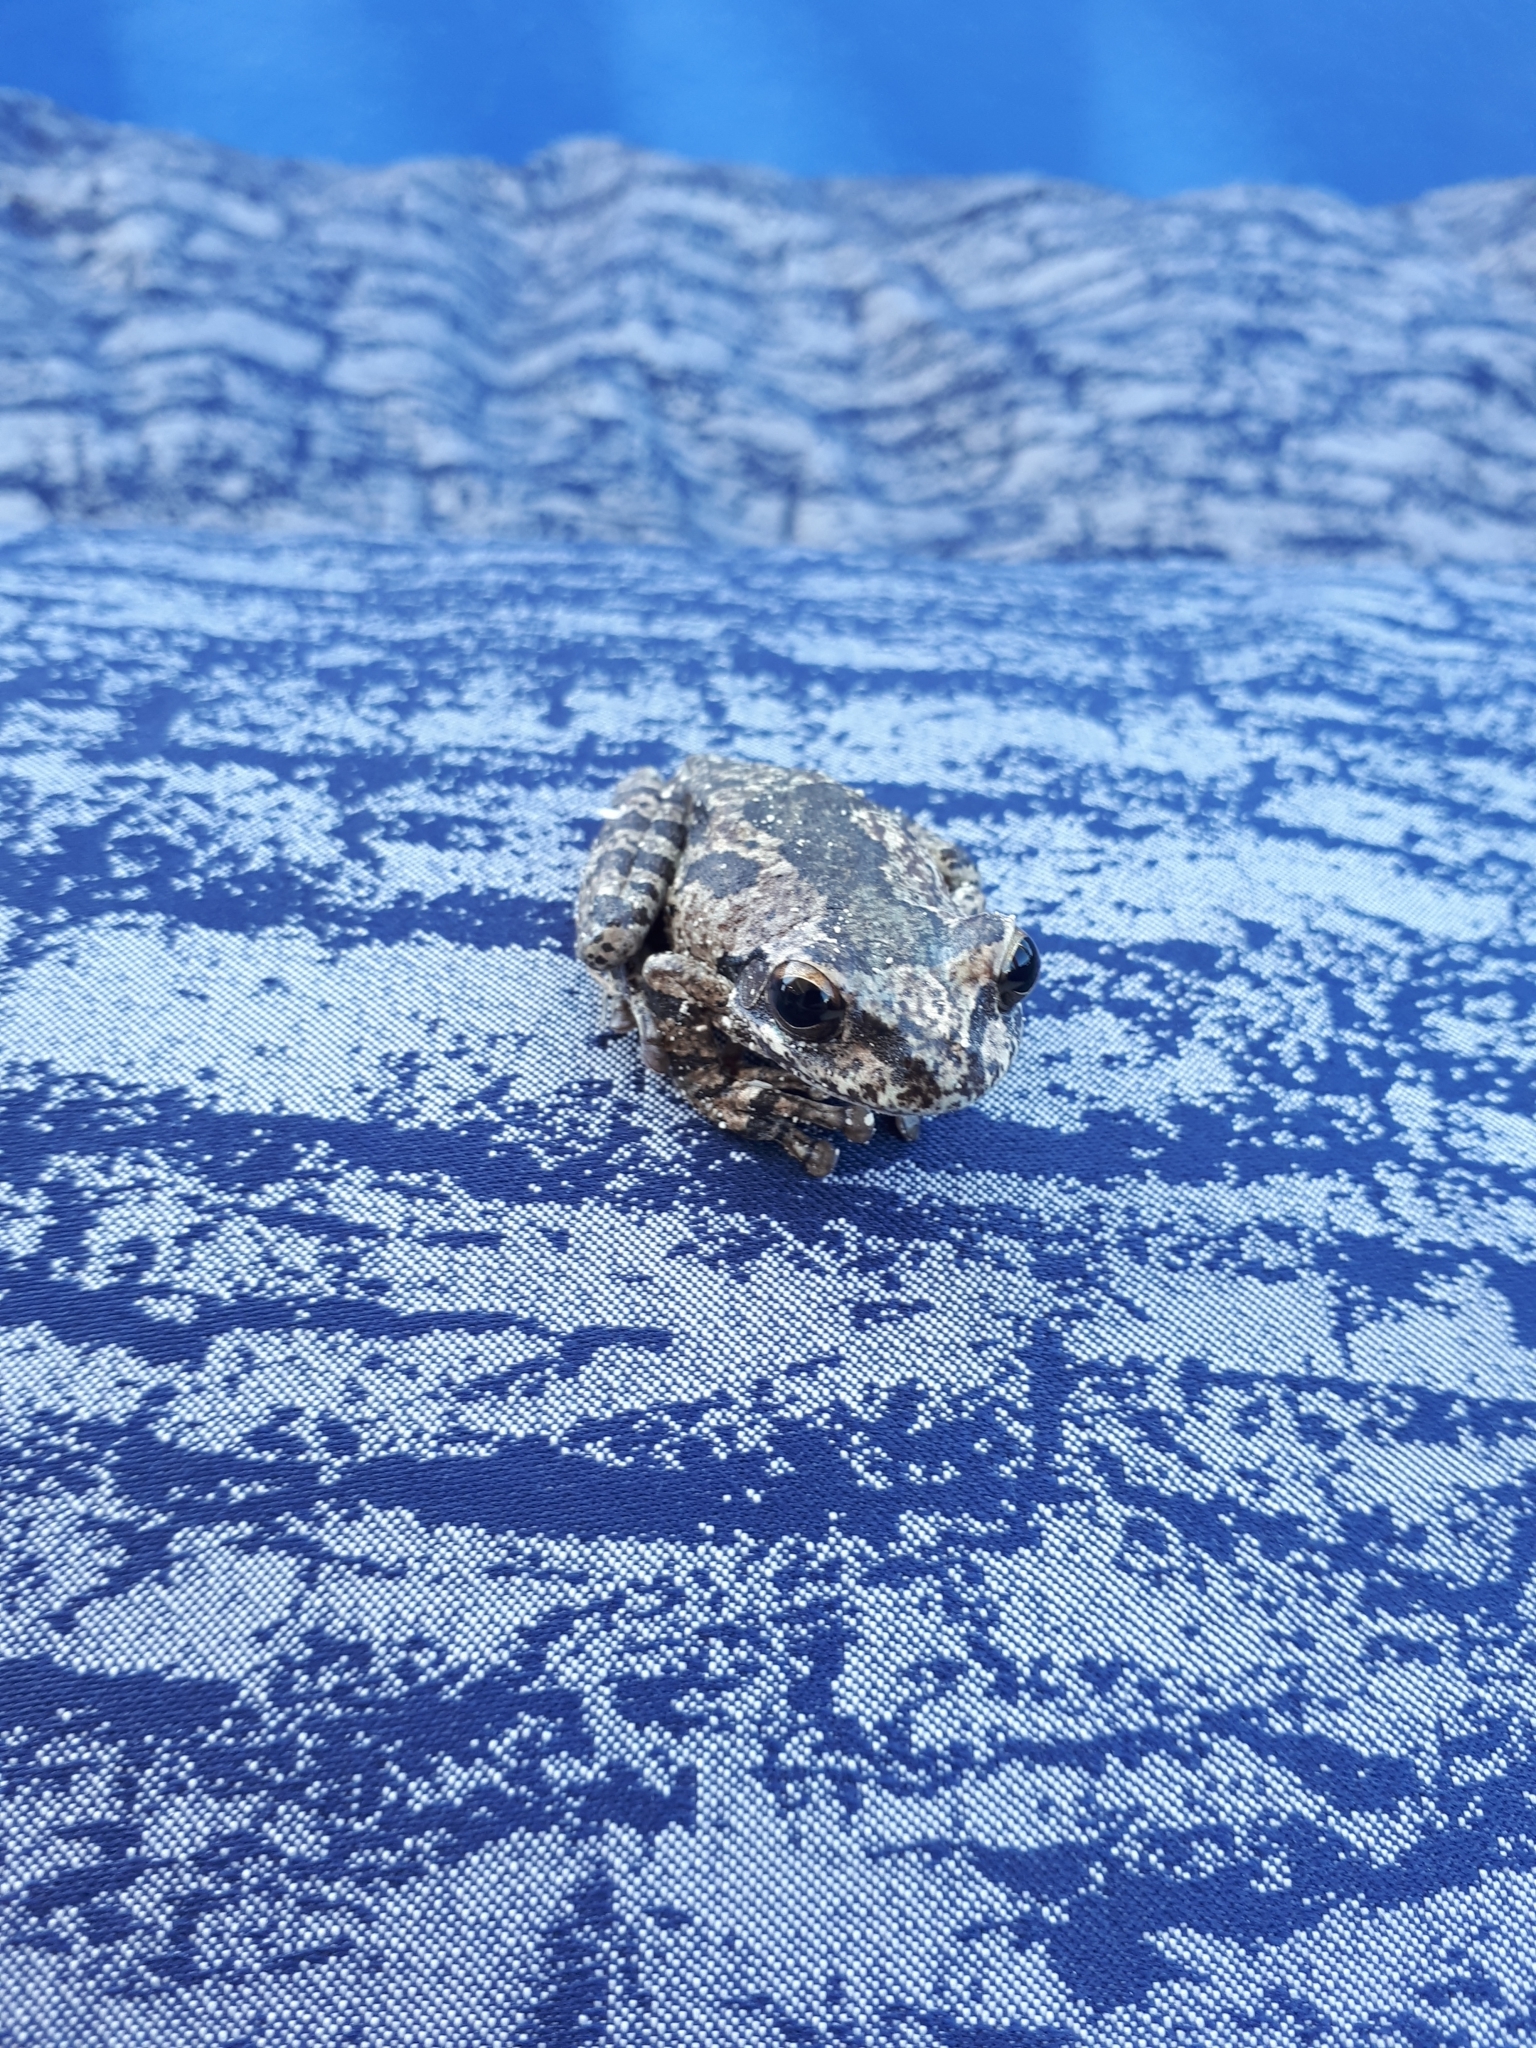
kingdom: Animalia
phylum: Chordata
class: Amphibia
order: Anura
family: Hylidae
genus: Smilisca
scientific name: Smilisca baudinii
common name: Mexican smilisca
